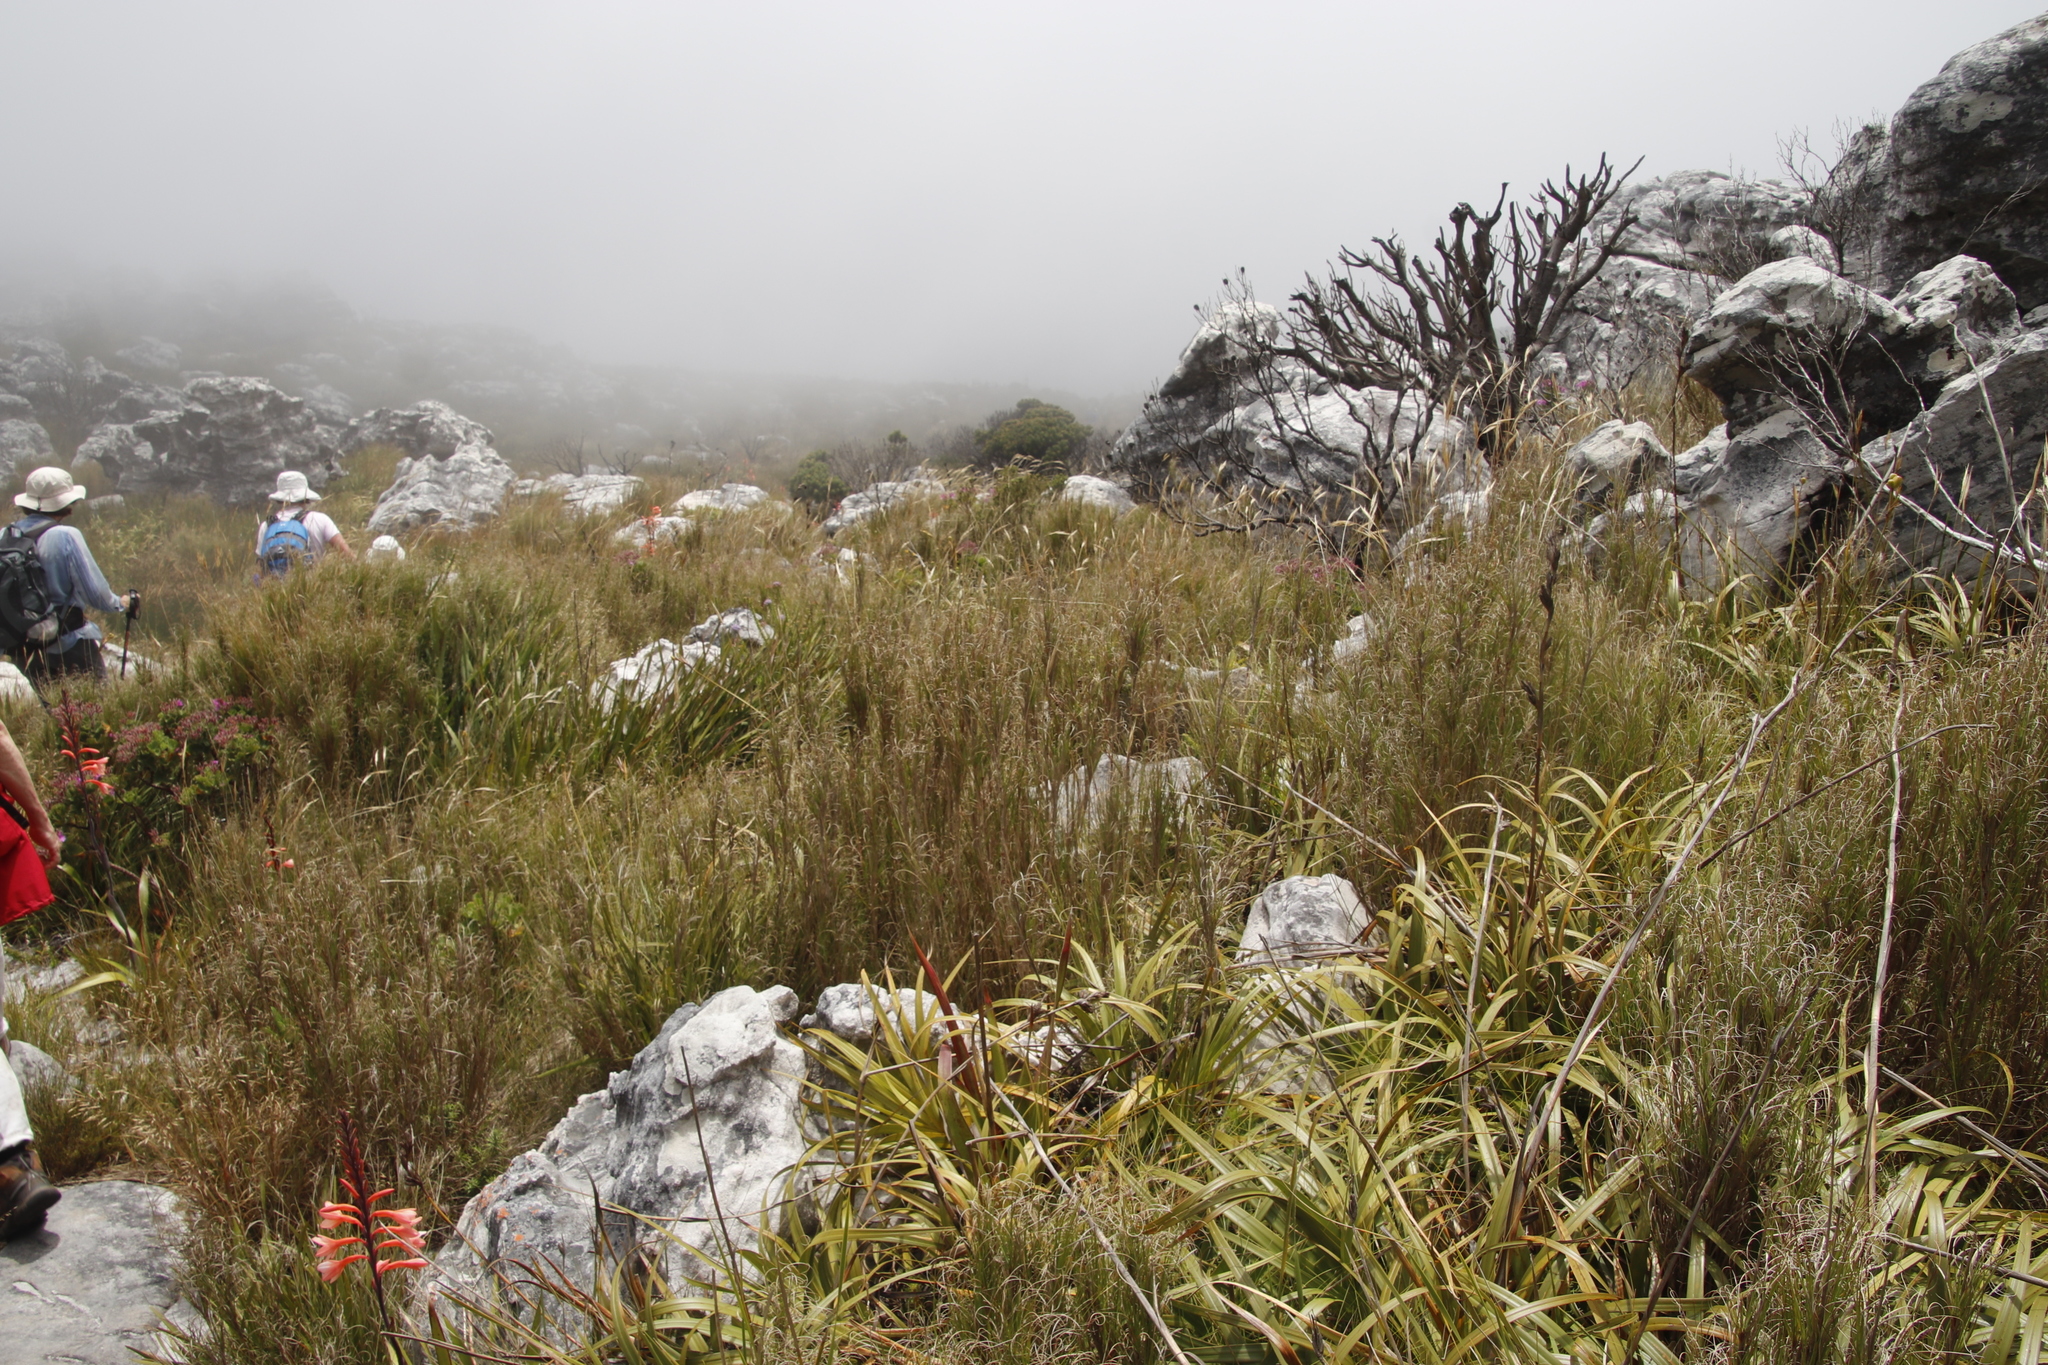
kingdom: Plantae
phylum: Tracheophyta
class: Liliopsida
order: Poales
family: Poaceae
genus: Pseudopentameris
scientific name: Pseudopentameris macrantha
